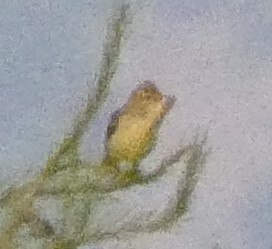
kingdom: Animalia
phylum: Chordata
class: Aves
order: Passeriformes
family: Acrocephalidae
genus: Hippolais
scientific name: Hippolais polyglotta
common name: Melodious warbler
